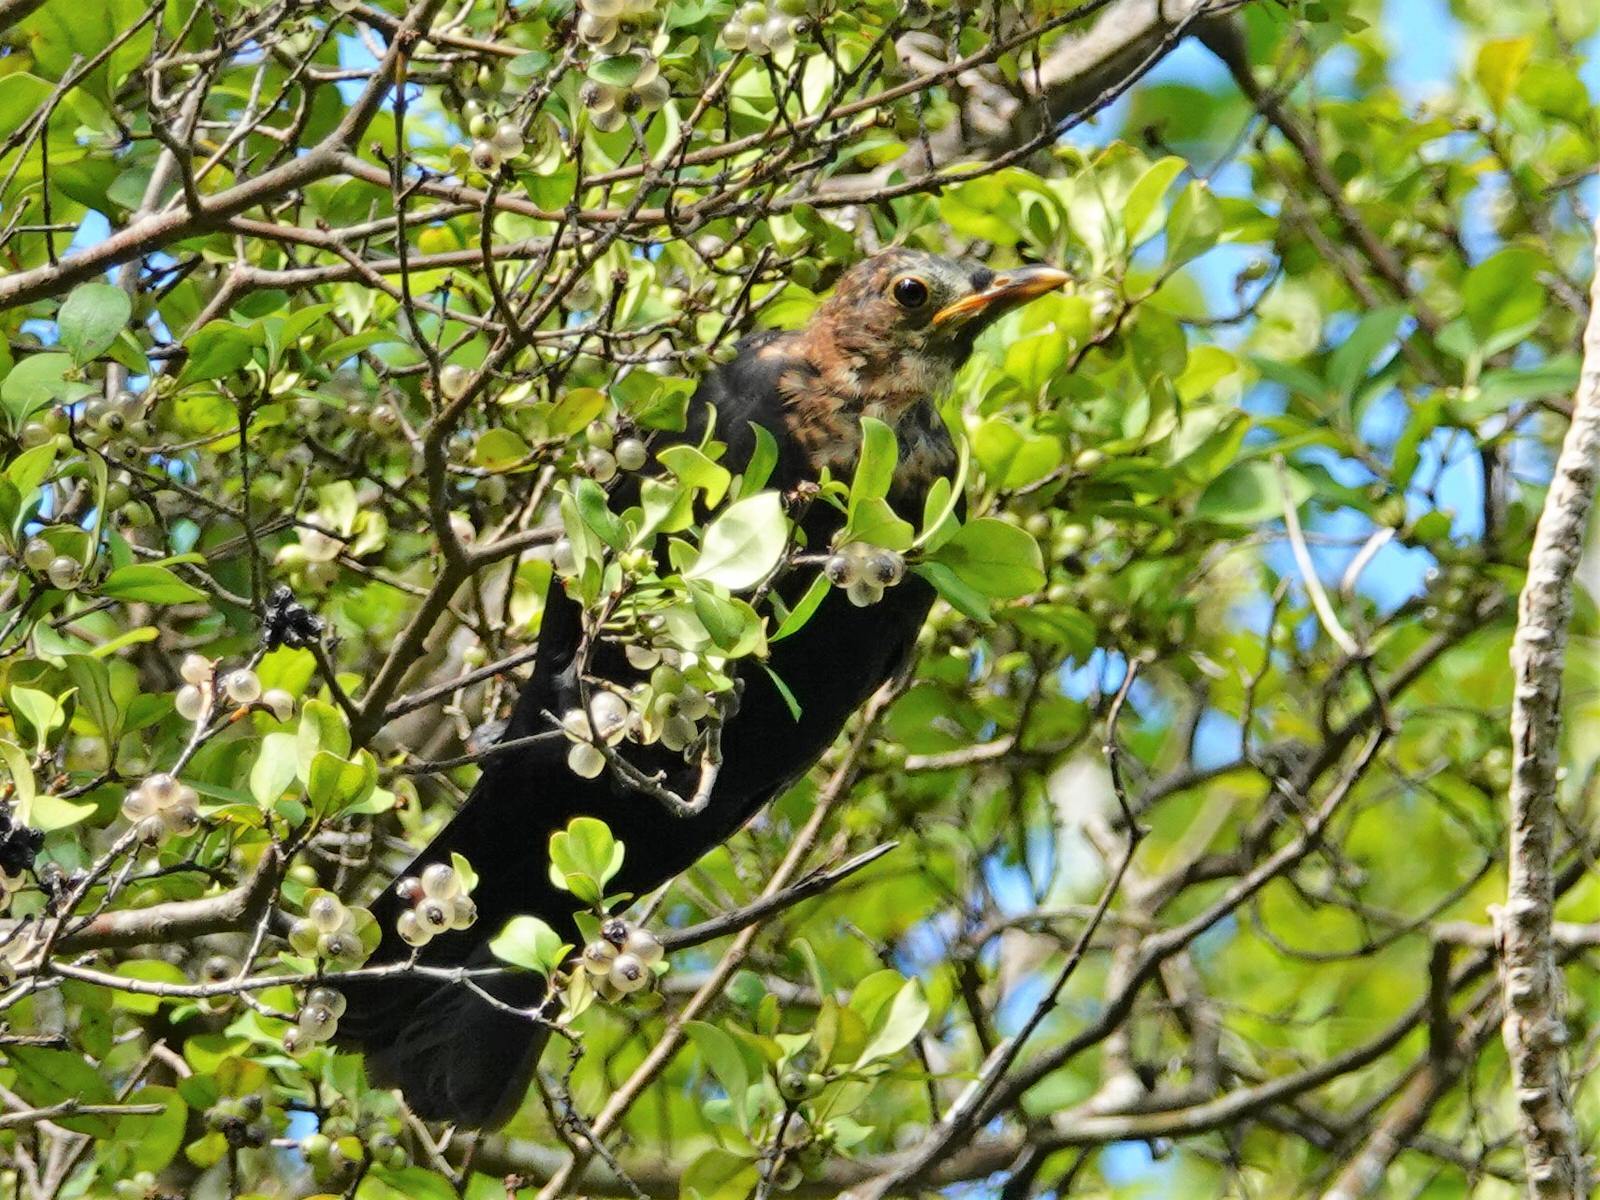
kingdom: Plantae
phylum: Tracheophyta
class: Magnoliopsida
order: Gentianales
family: Rubiaceae
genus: Coprosma
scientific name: Coprosma arborea
